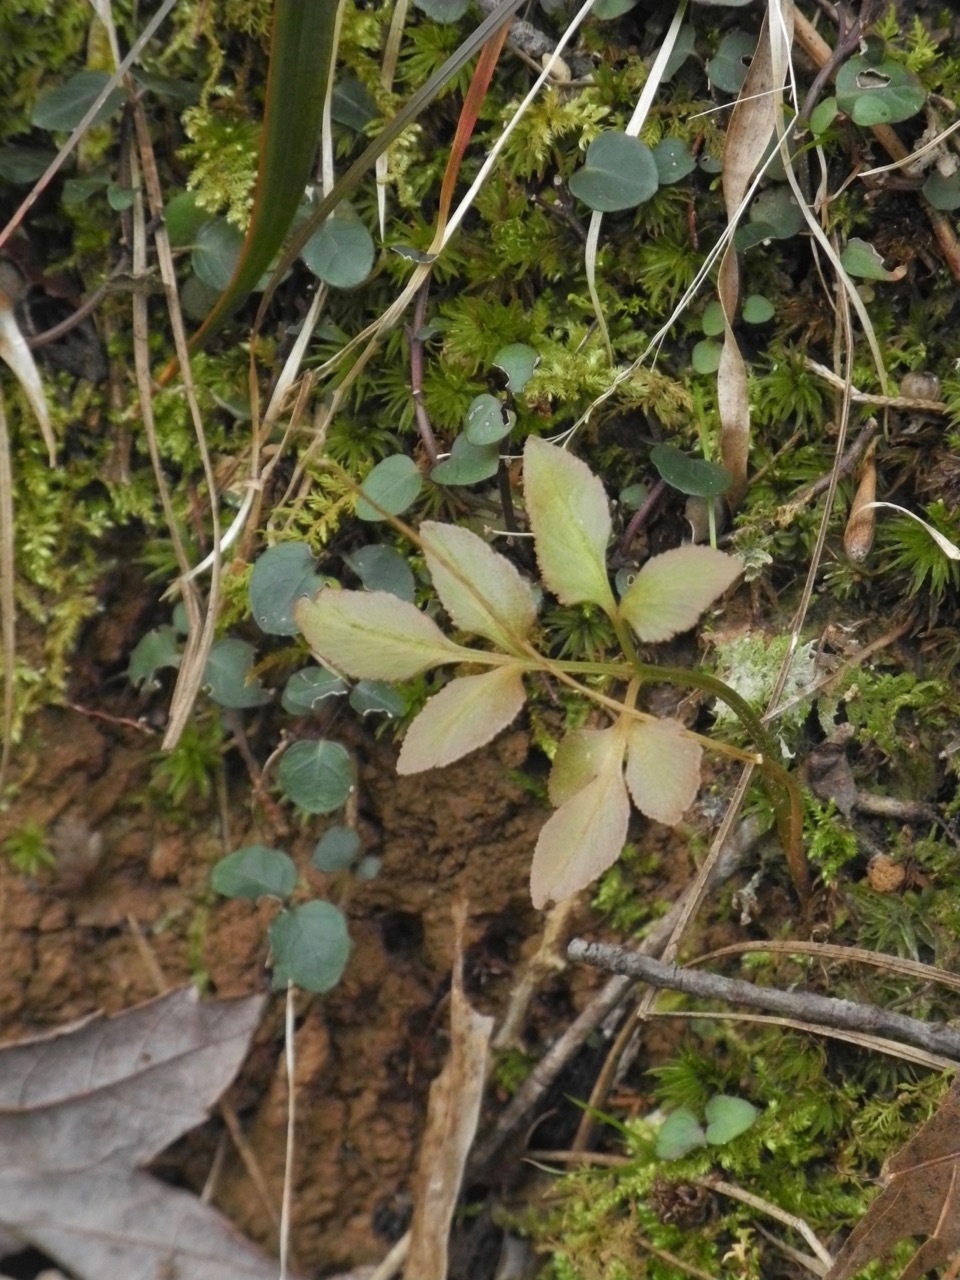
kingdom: Plantae
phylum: Tracheophyta
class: Polypodiopsida
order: Ophioglossales
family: Ophioglossaceae
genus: Sceptridium
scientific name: Sceptridium biternatum
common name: Sparse-lobed grapefern
